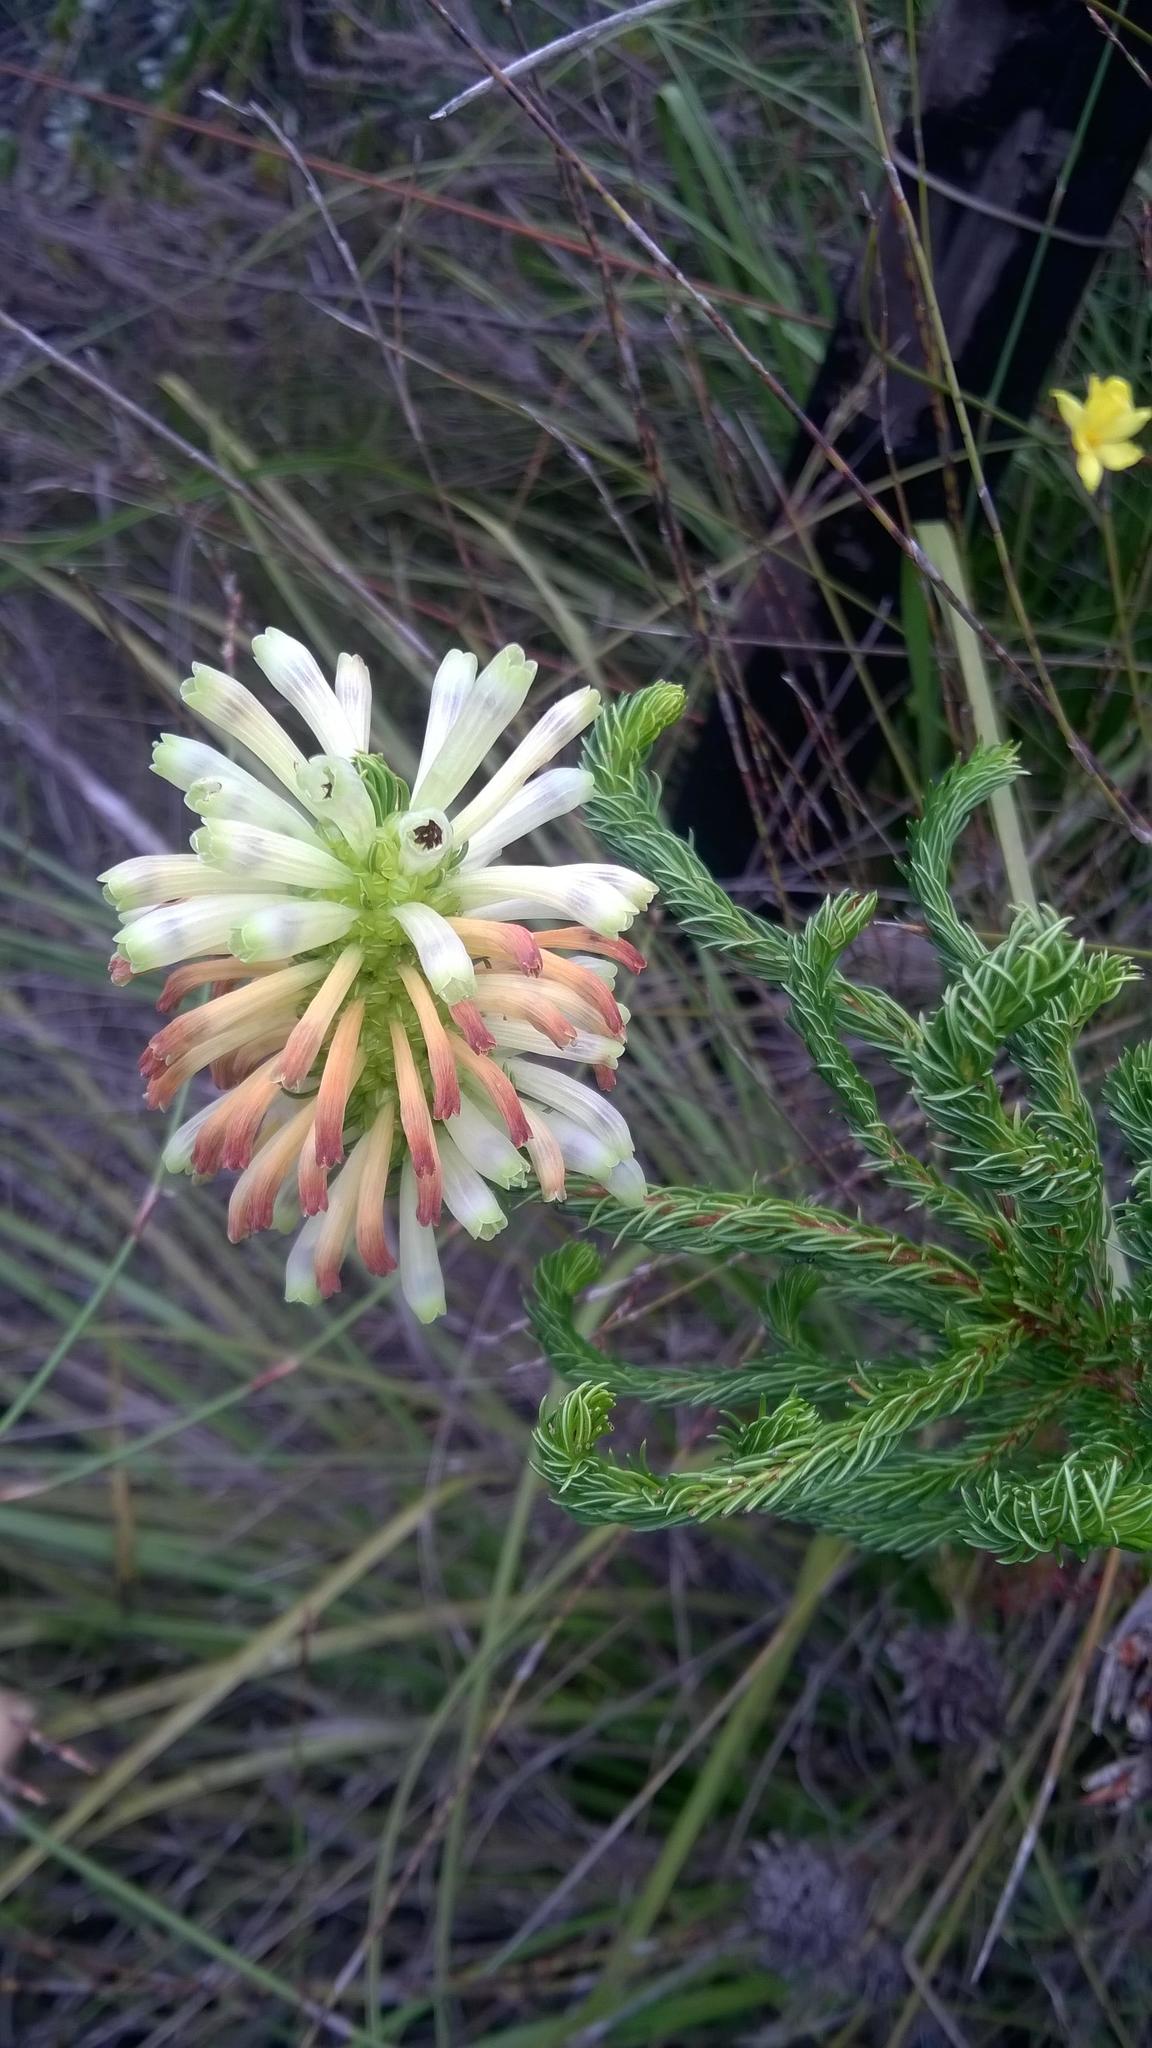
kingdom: Plantae
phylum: Tracheophyta
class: Magnoliopsida
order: Ericales
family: Ericaceae
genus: Erica
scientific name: Erica sessiliflora
